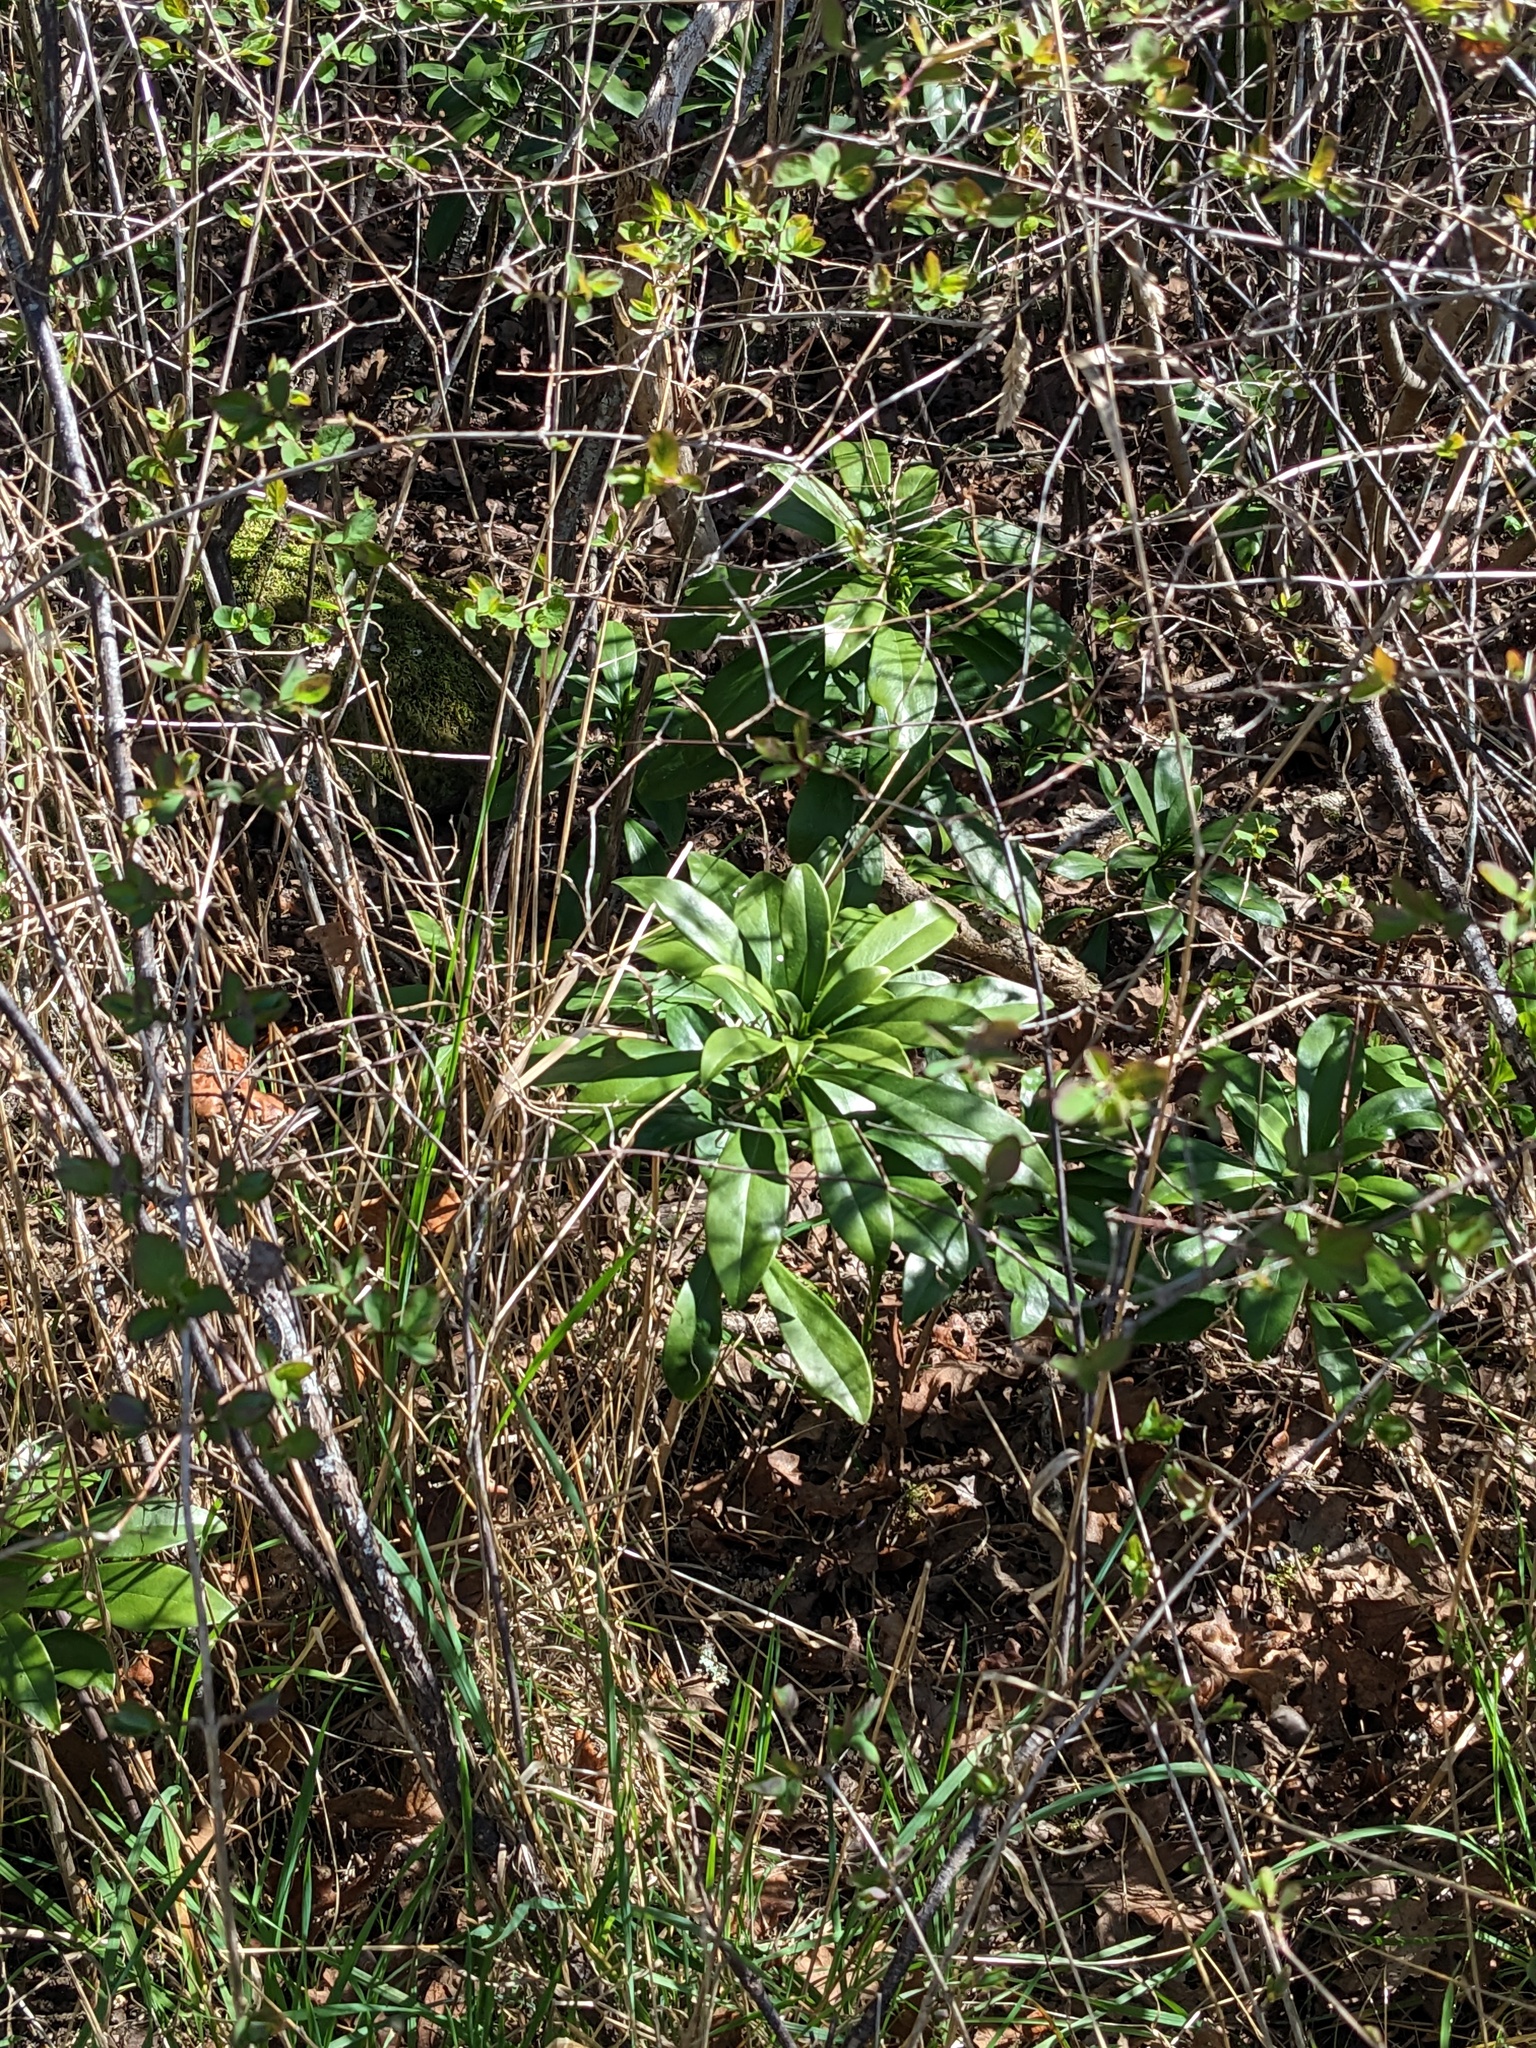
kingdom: Plantae
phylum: Tracheophyta
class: Magnoliopsida
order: Malvales
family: Thymelaeaceae
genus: Daphne
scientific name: Daphne laureola
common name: Spurge-laurel
